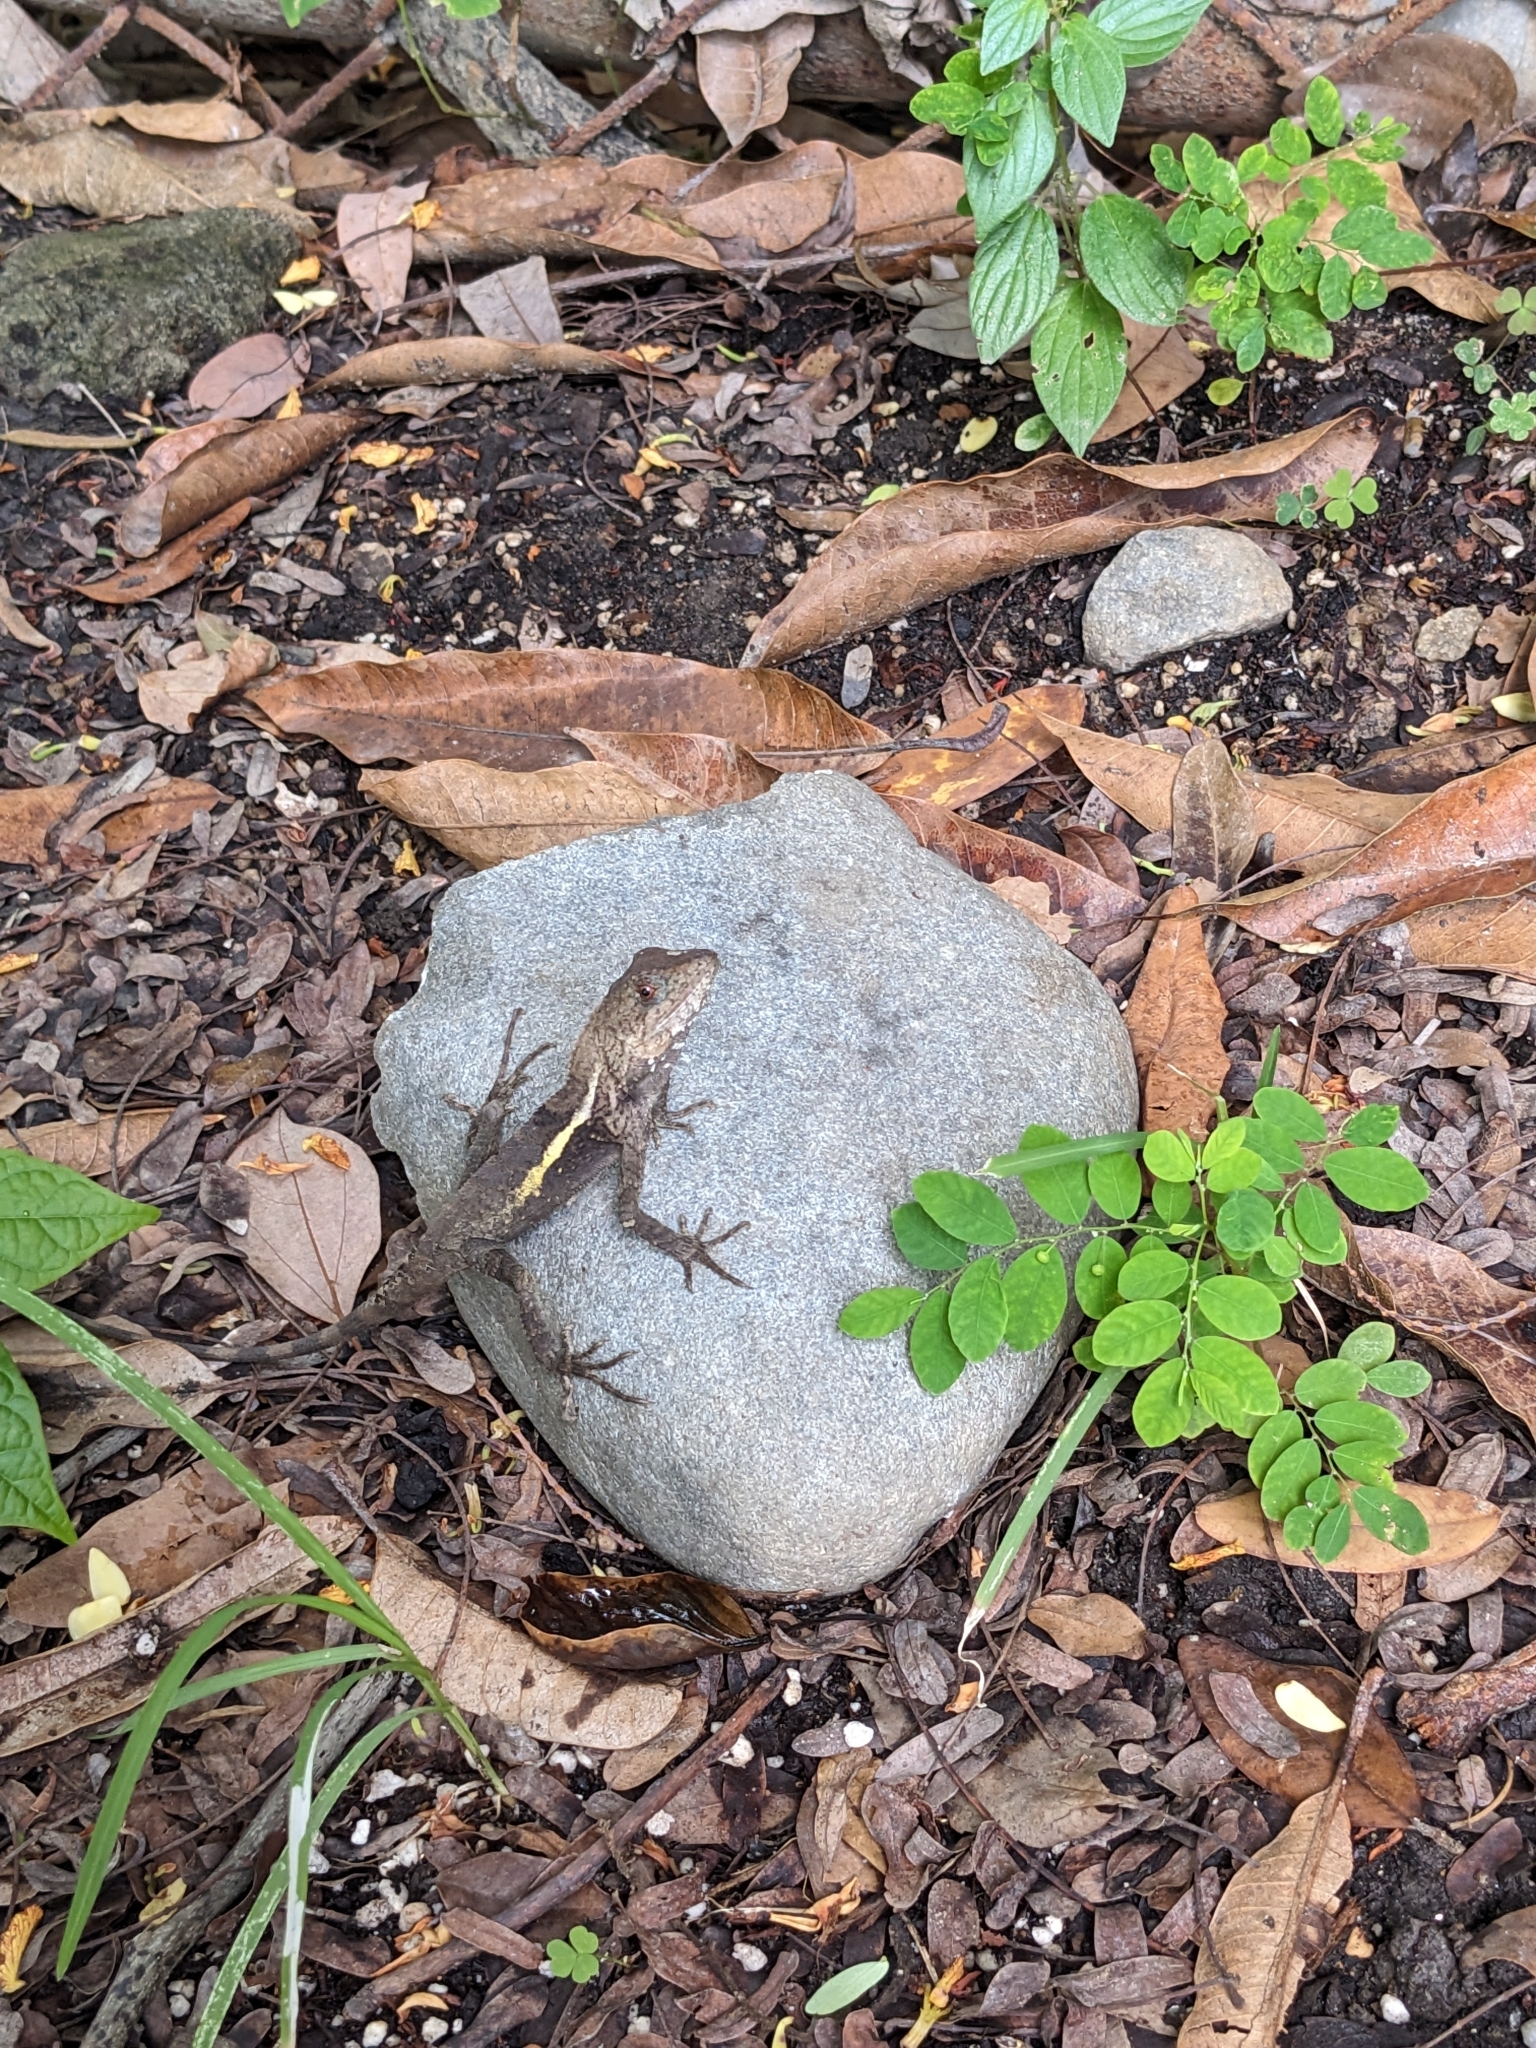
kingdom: Animalia
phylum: Chordata
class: Squamata
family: Agamidae
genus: Diploderma
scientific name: Diploderma swinhonis
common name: Taiwan japalure
